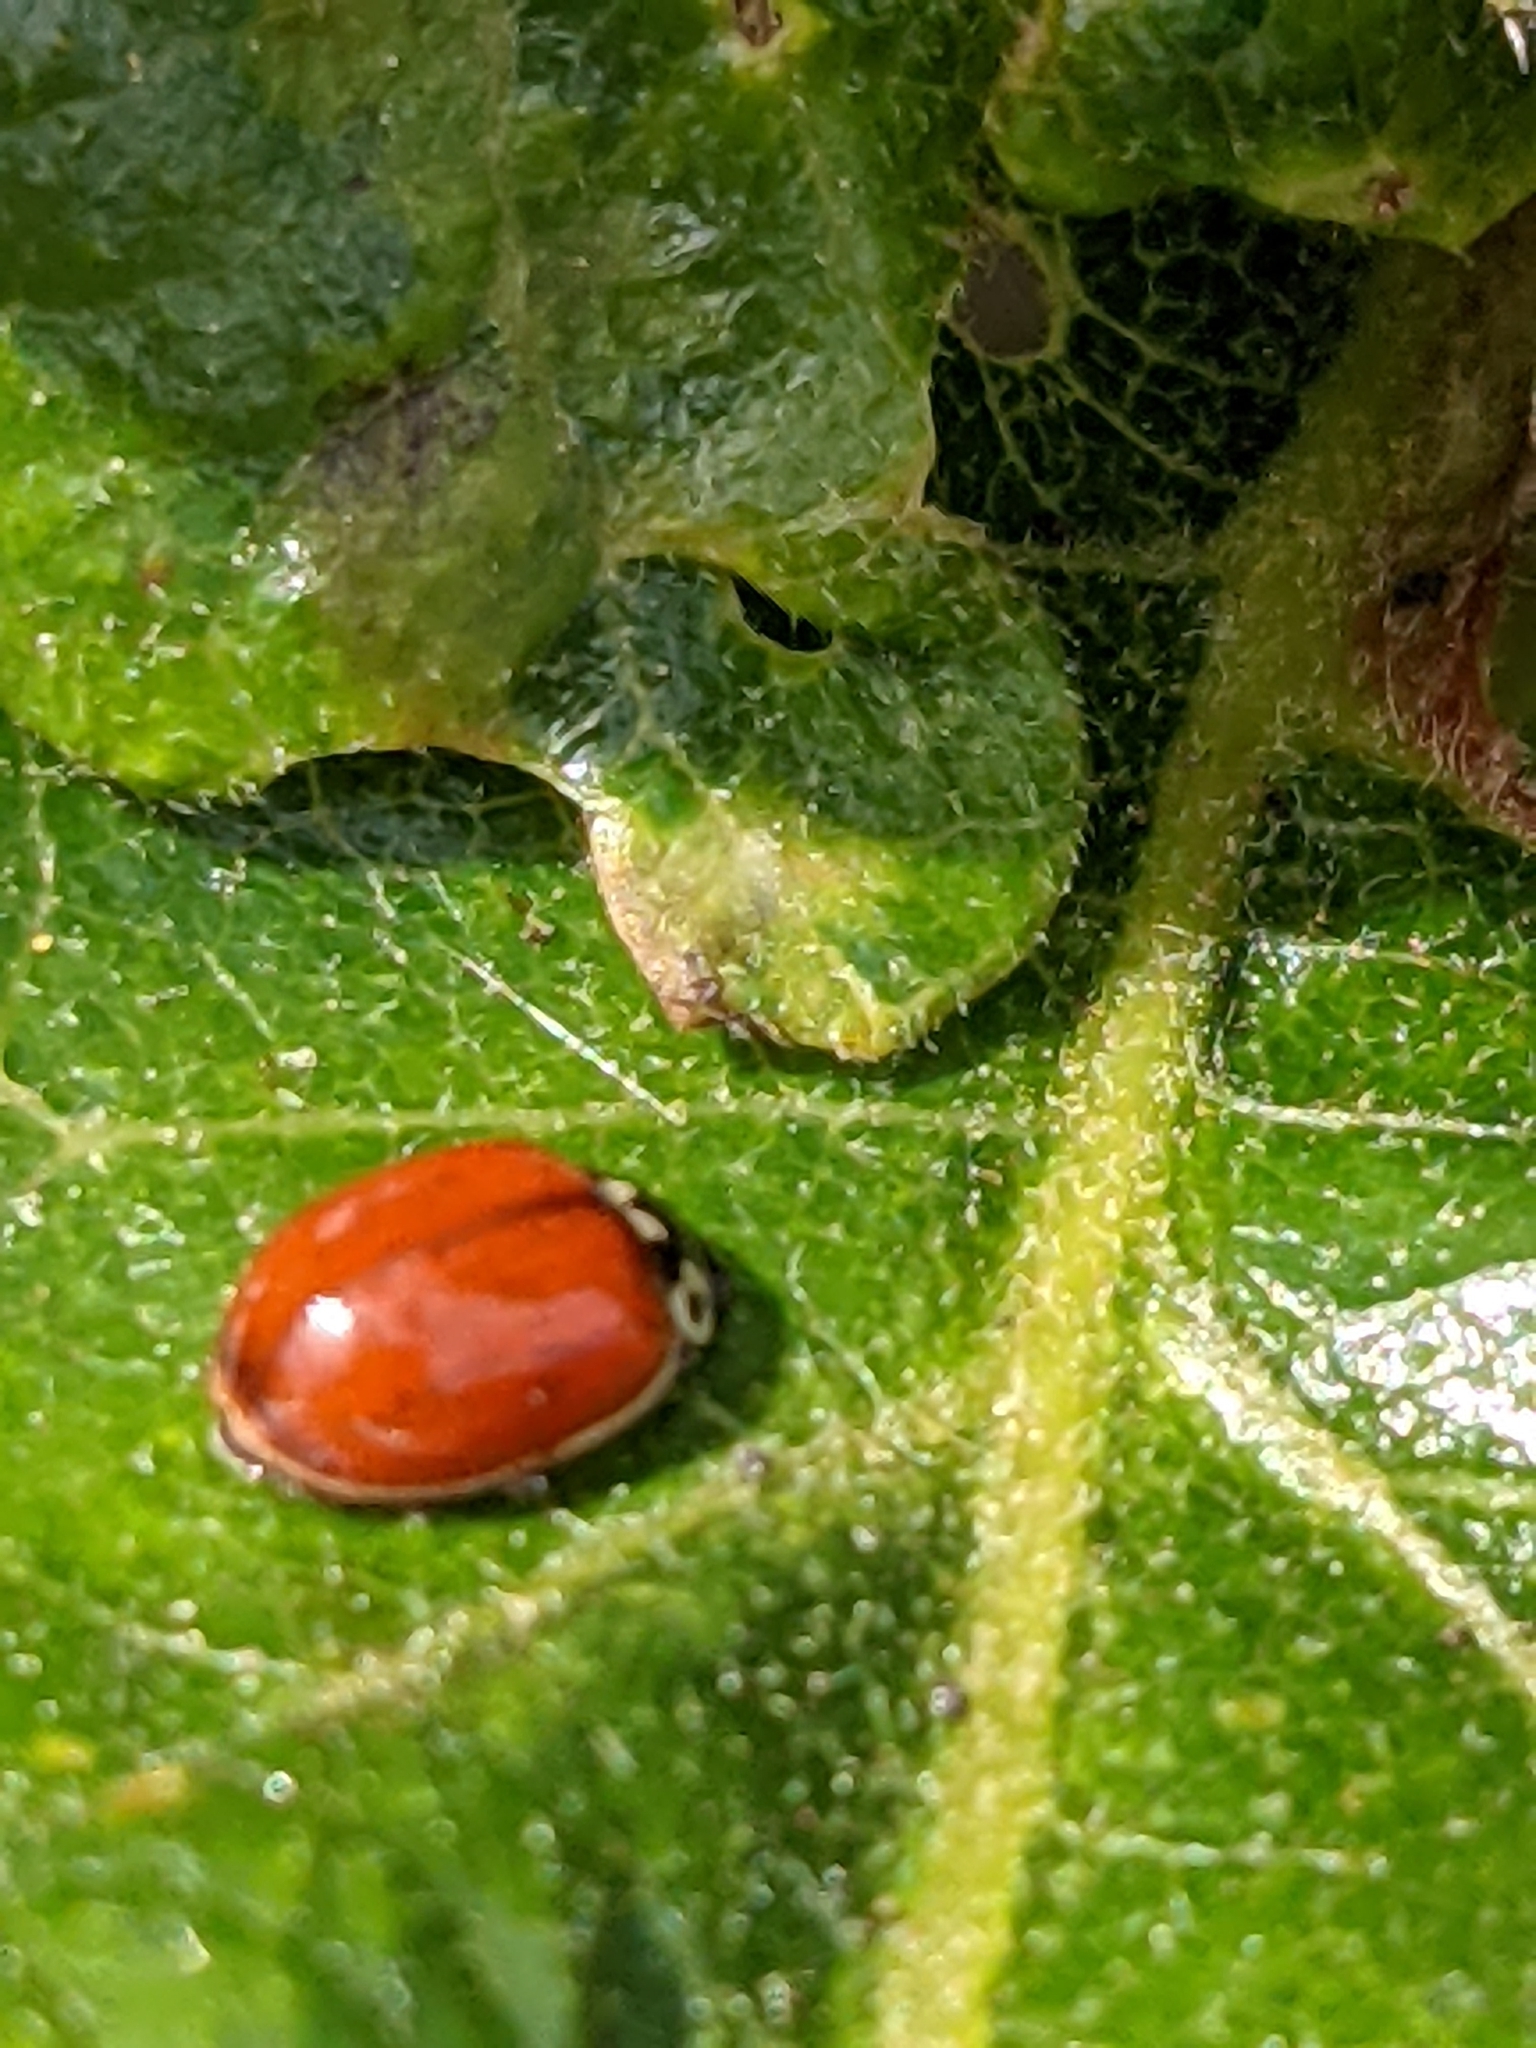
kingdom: Animalia
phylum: Arthropoda
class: Insecta
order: Coleoptera
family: Coccinellidae
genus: Cycloneda
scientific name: Cycloneda polita
